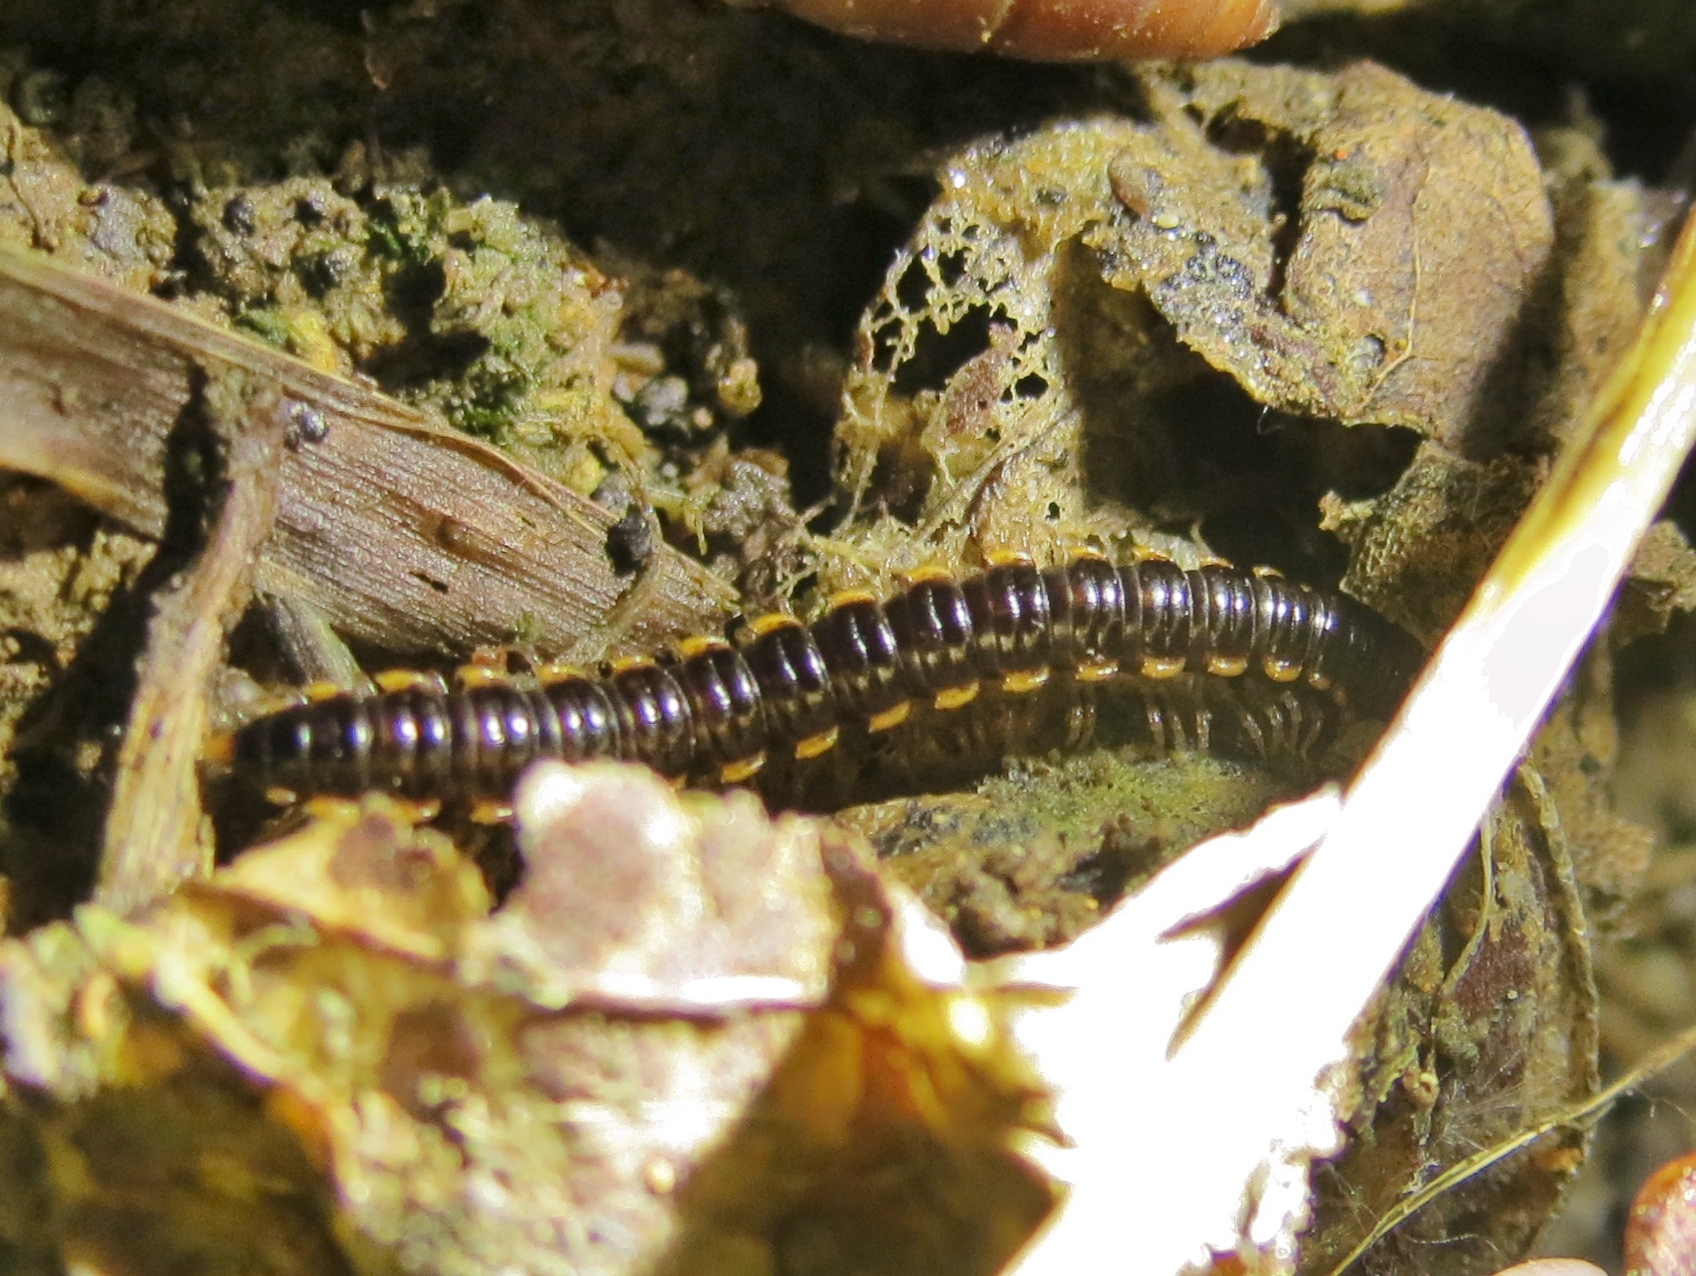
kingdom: Animalia
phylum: Arthropoda
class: Diplopoda
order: Polydesmida
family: Paradoxosomatidae
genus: Orthomorpha
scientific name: Orthomorpha coarctata
